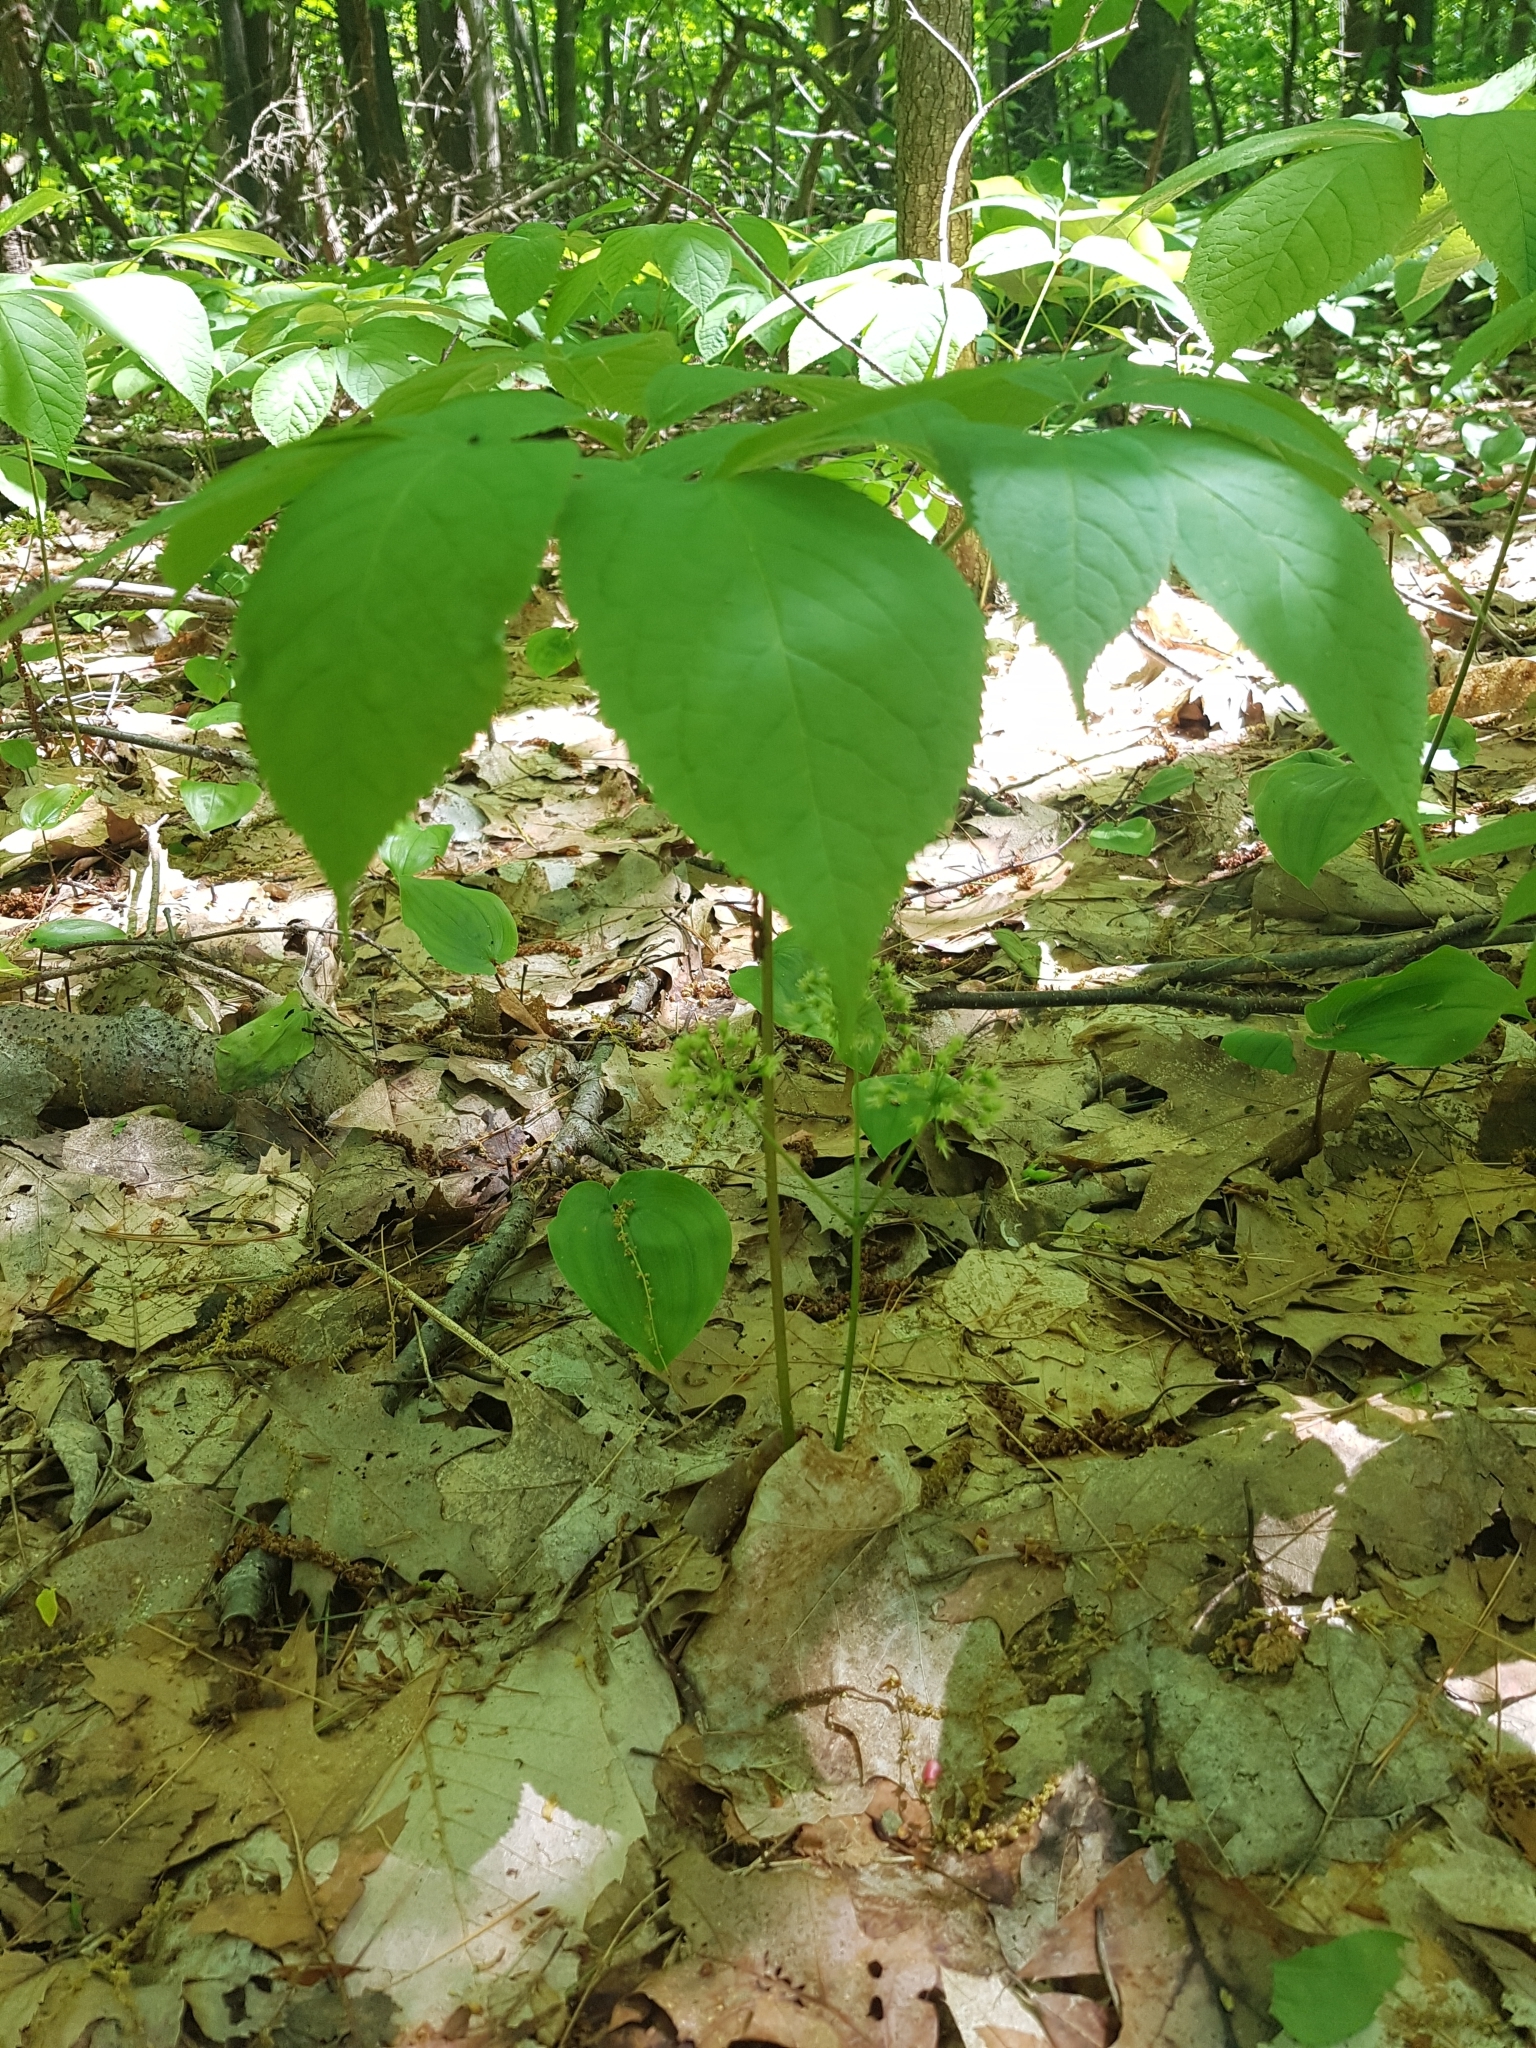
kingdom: Plantae
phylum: Tracheophyta
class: Magnoliopsida
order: Apiales
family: Araliaceae
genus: Aralia
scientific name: Aralia nudicaulis
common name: Wild sarsaparilla
